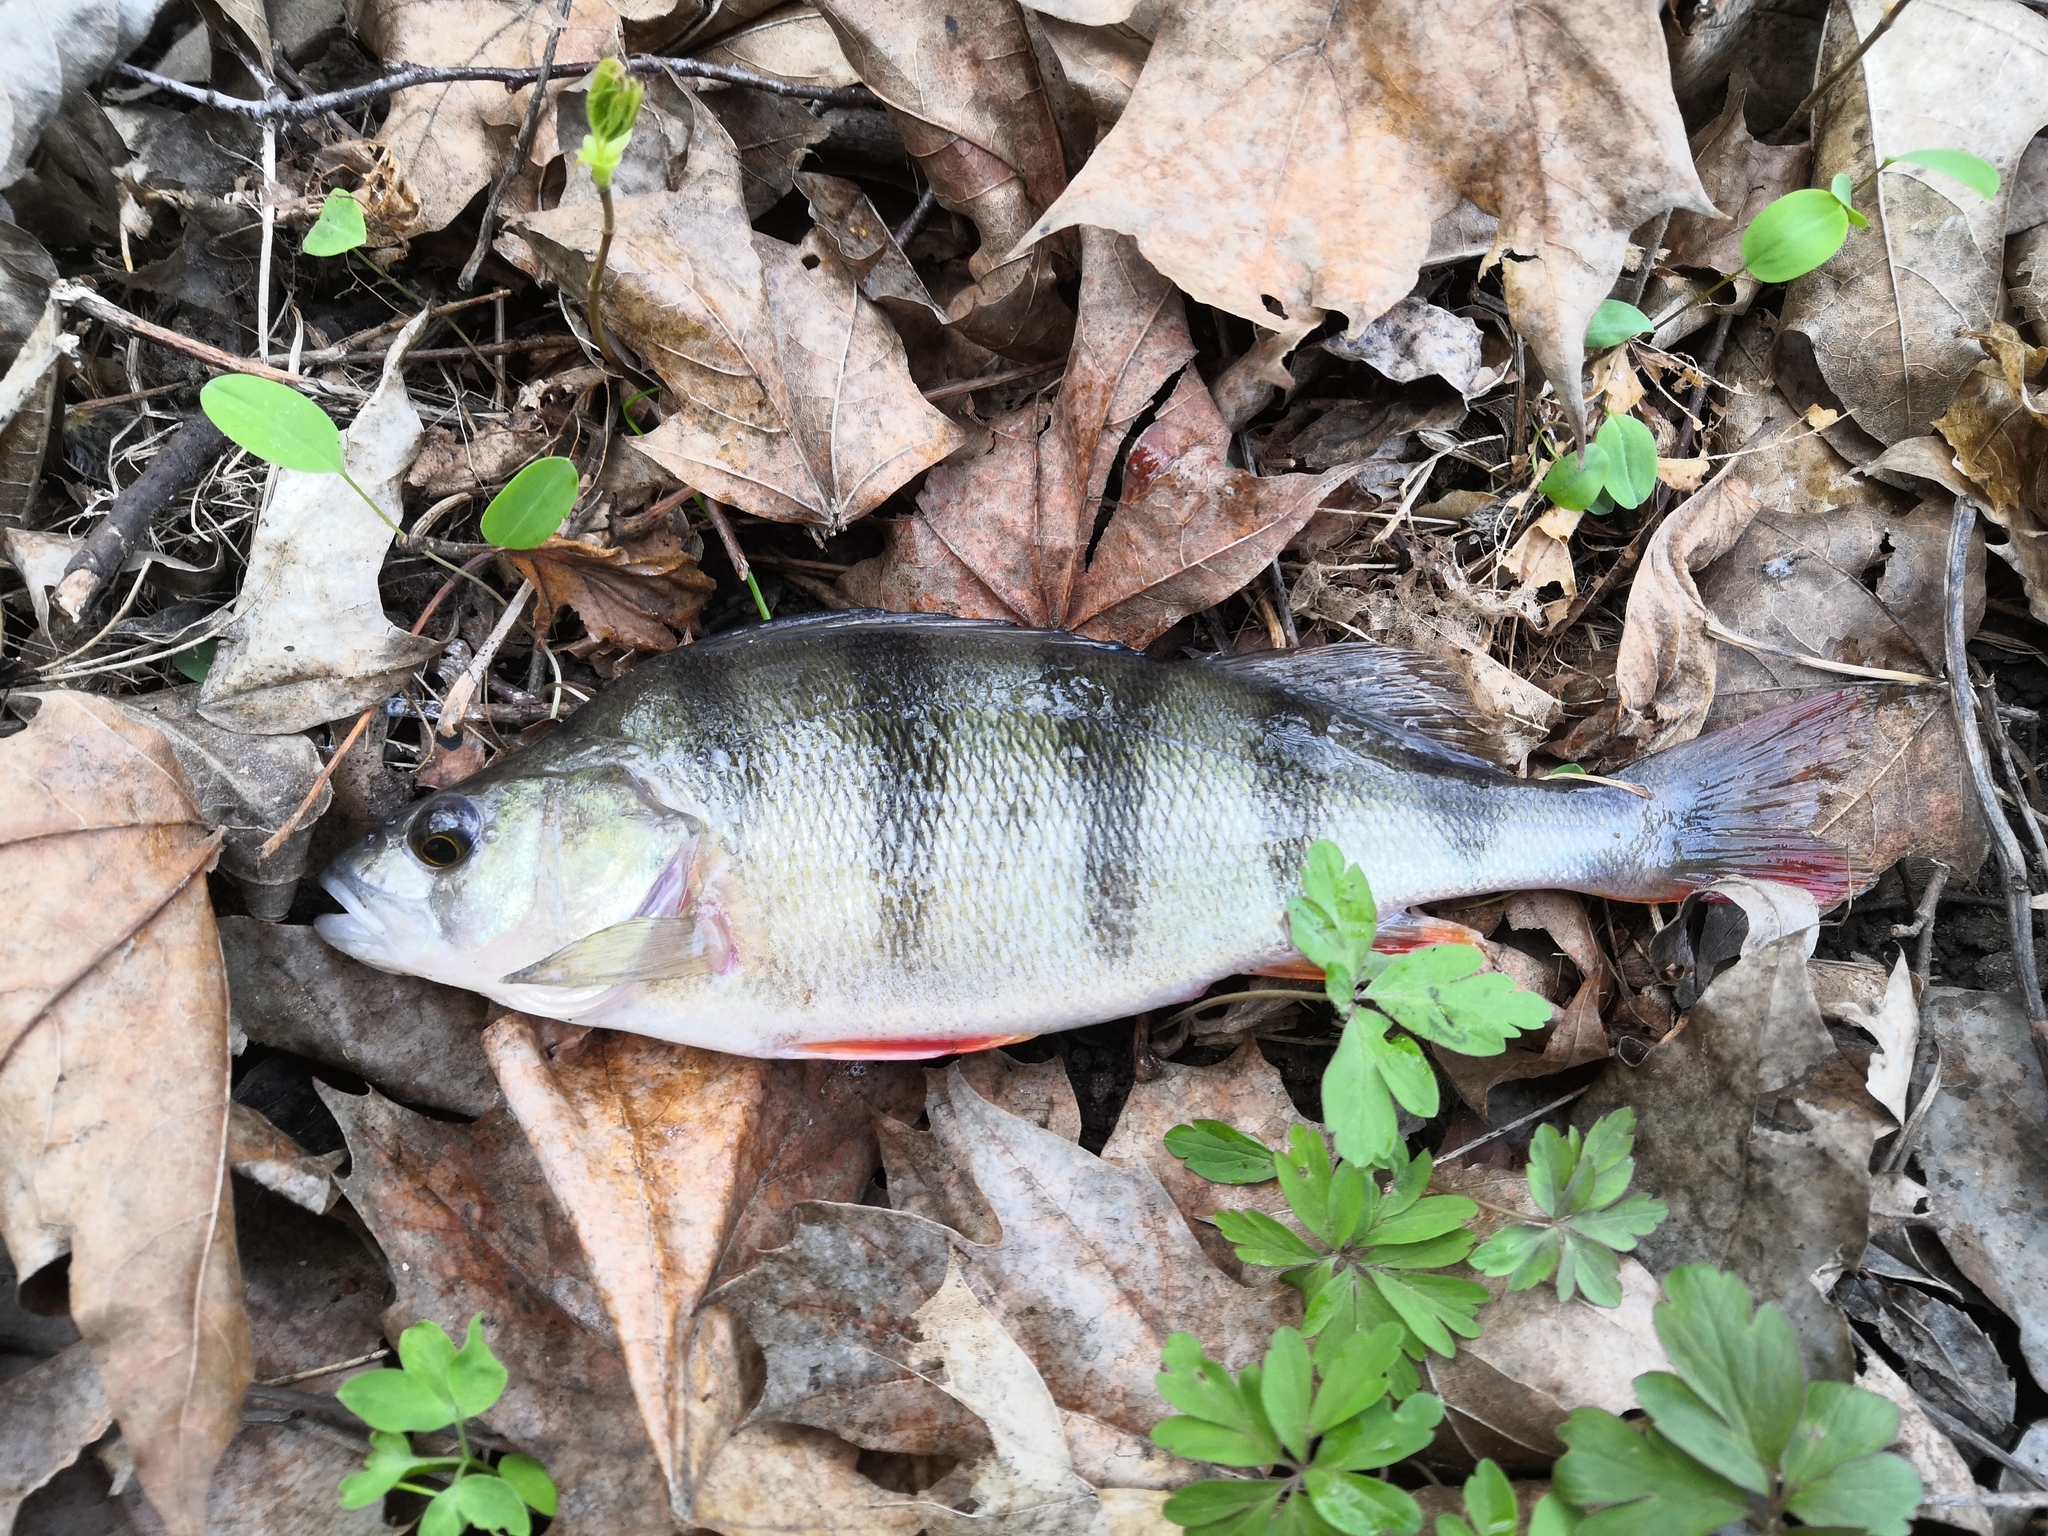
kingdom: Animalia
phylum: Chordata
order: Perciformes
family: Percidae
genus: Perca
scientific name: Perca fluviatilis
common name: Perch
